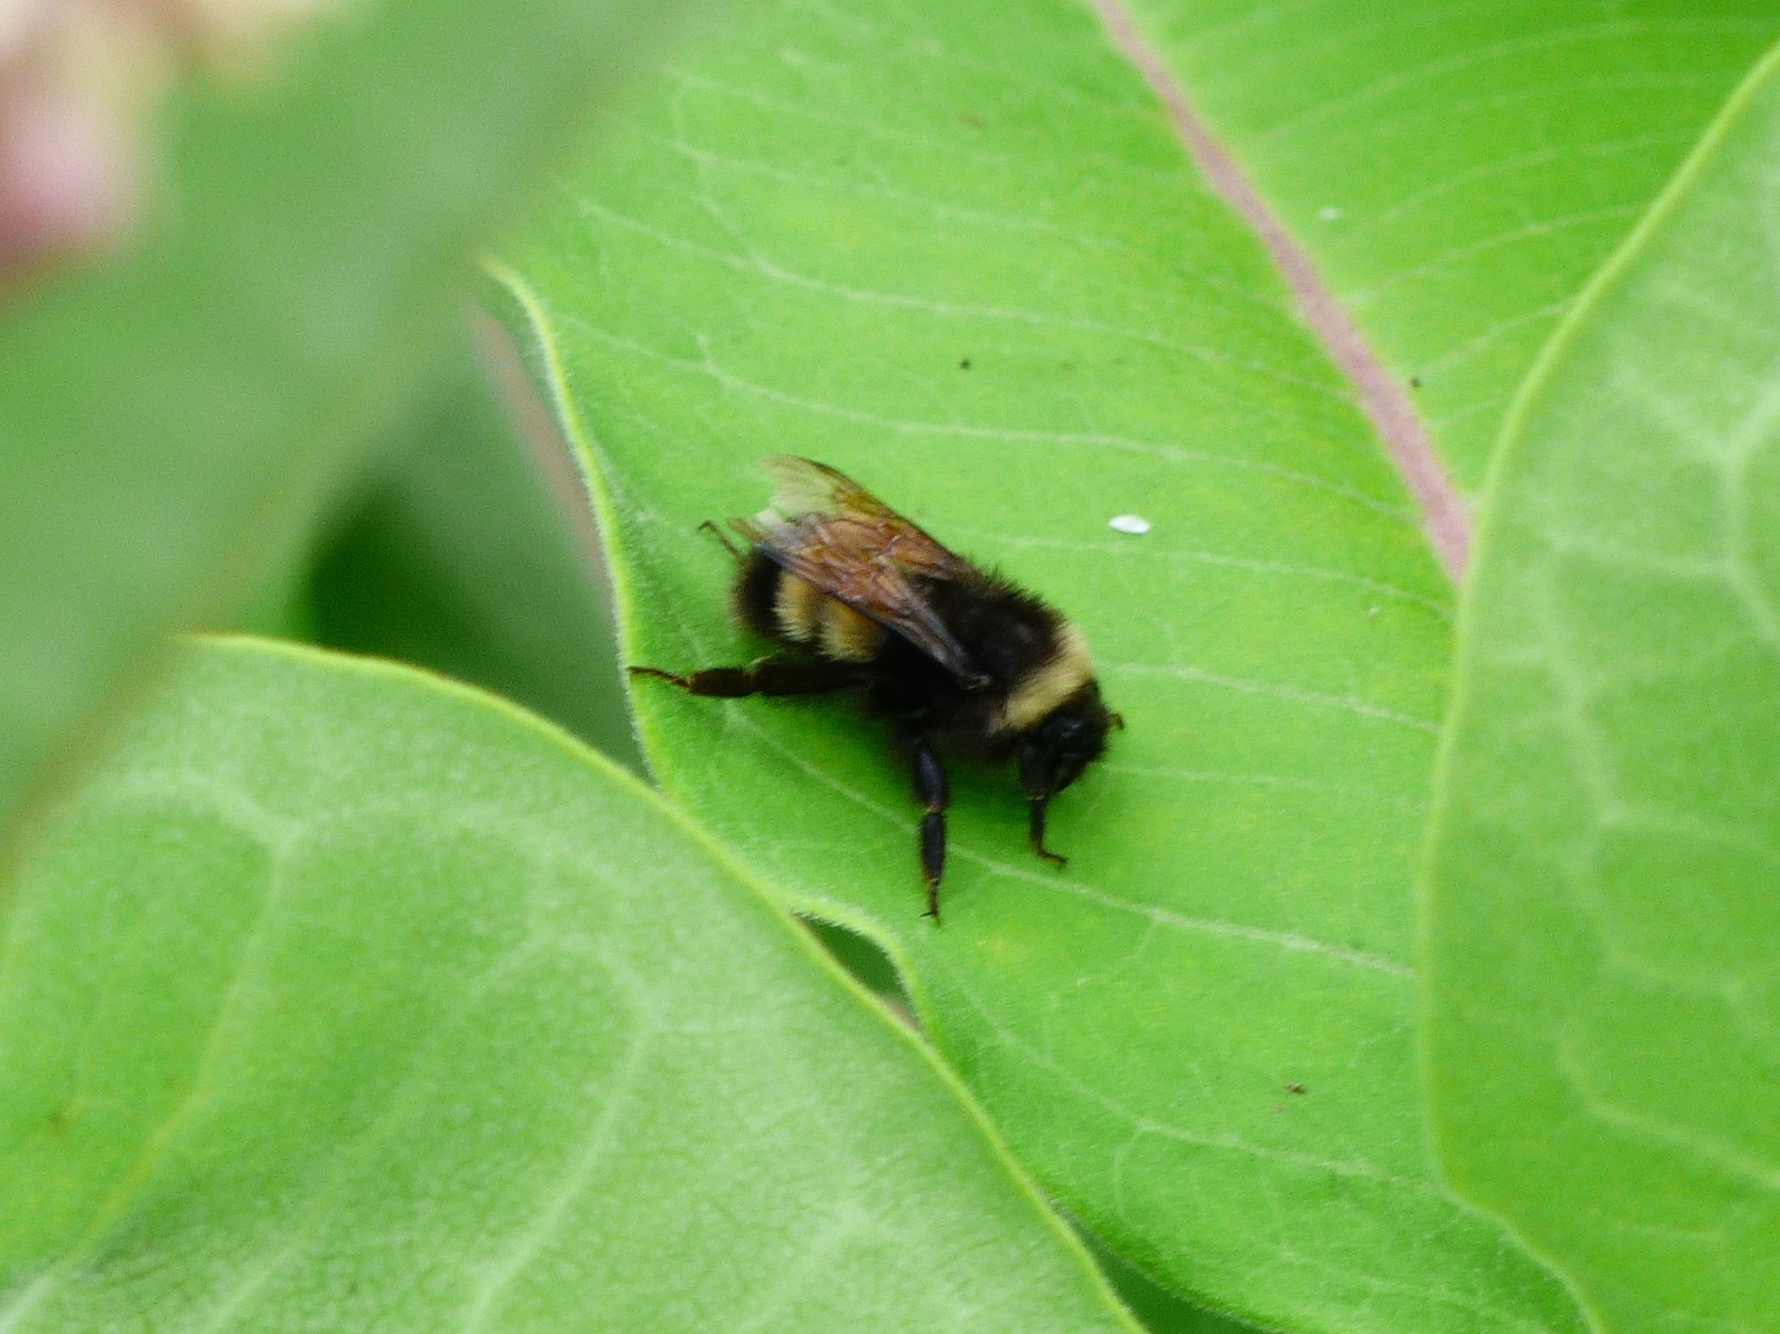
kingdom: Animalia
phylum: Arthropoda
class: Insecta
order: Hymenoptera
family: Apidae
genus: Bombus
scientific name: Bombus terricola
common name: Yellow-banded bumble bee
